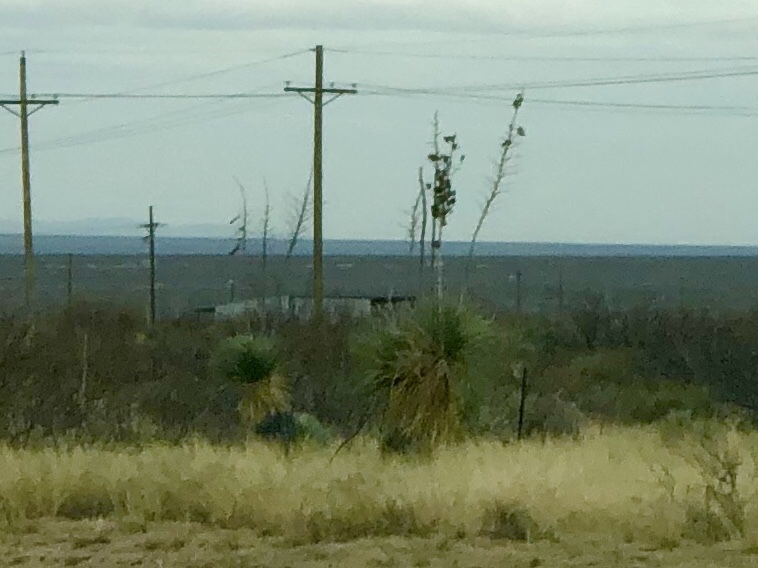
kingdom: Plantae
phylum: Tracheophyta
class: Liliopsida
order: Asparagales
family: Asparagaceae
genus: Yucca
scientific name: Yucca elata
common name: Palmella
